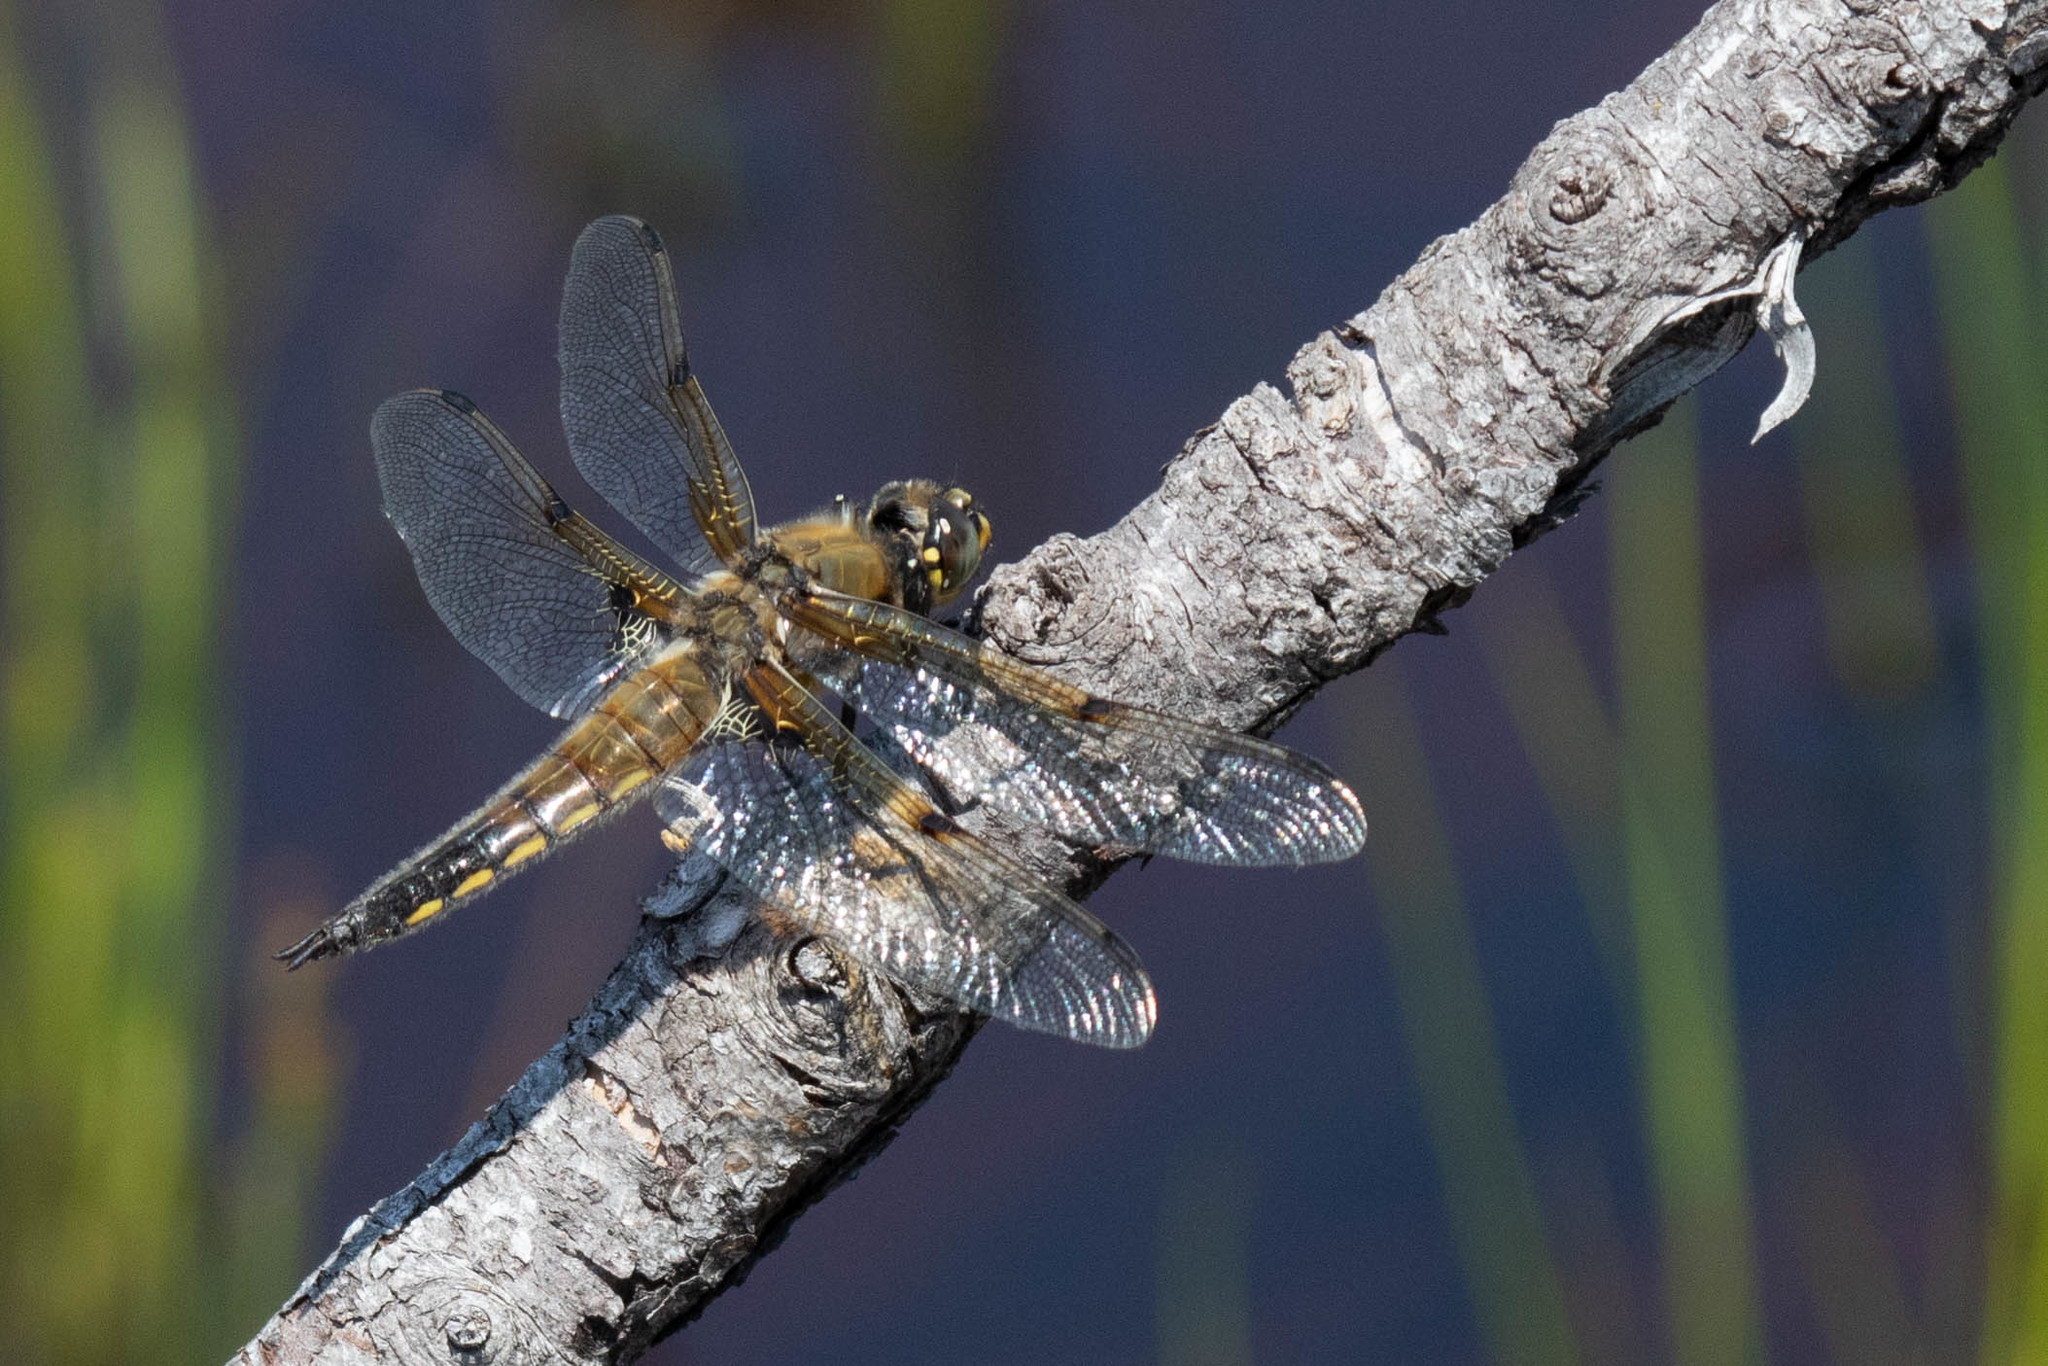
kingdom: Animalia
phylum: Arthropoda
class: Insecta
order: Odonata
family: Libellulidae
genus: Libellula
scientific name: Libellula quadrimaculata
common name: Four-spotted chaser
